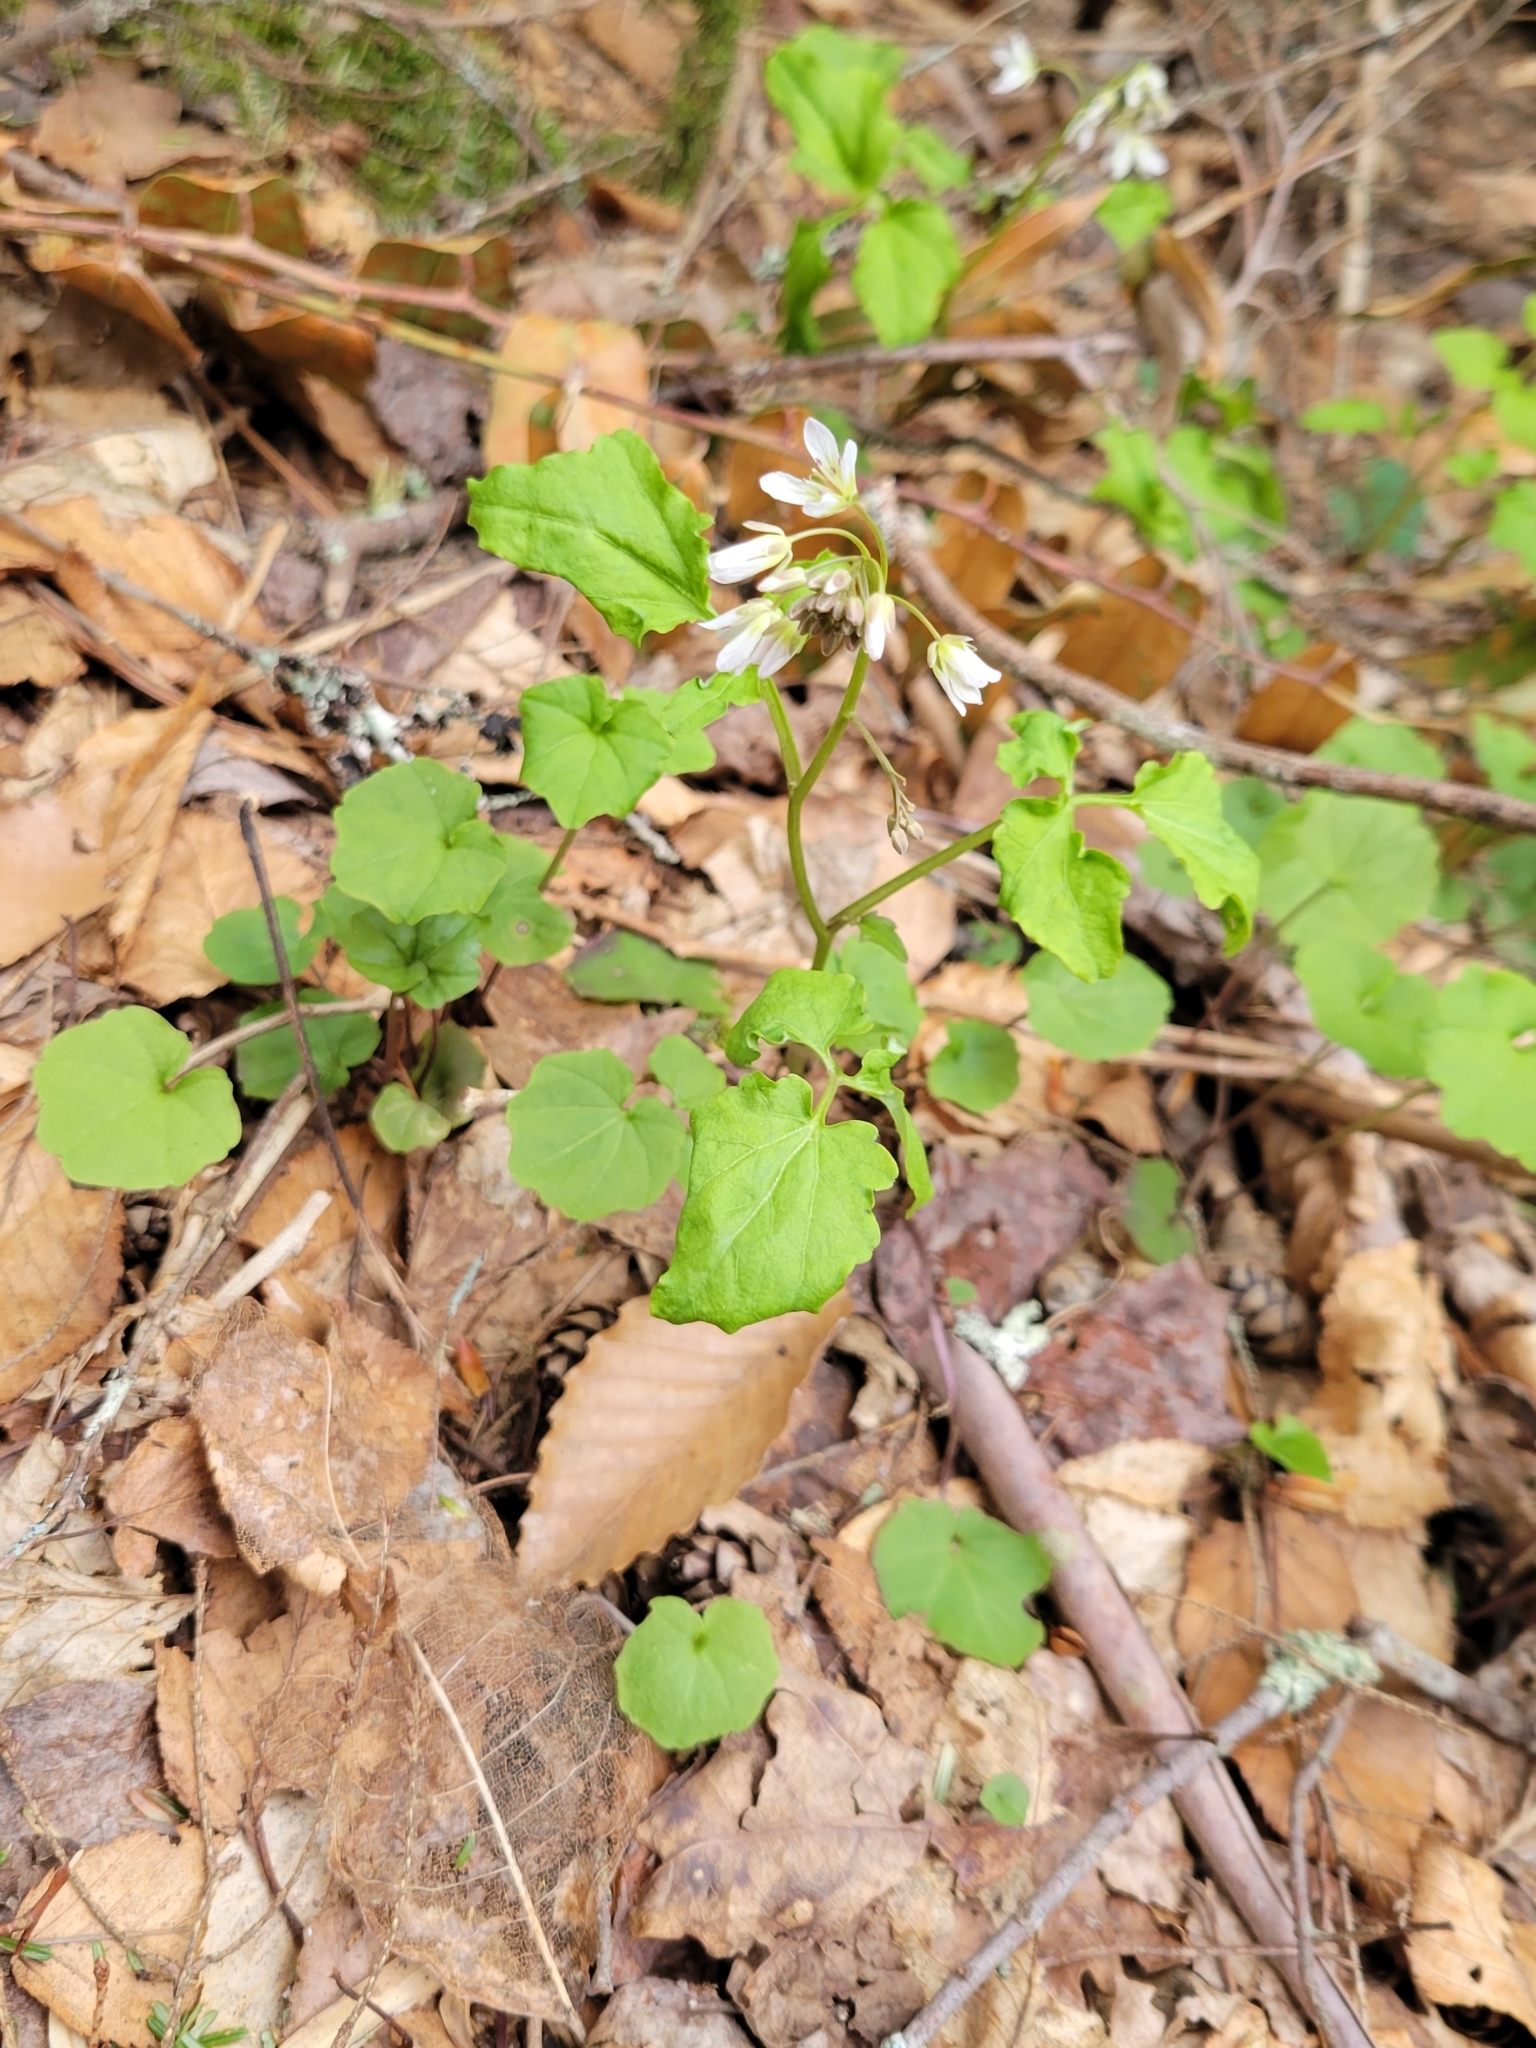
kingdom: Plantae
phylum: Tracheophyta
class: Magnoliopsida
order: Ranunculales
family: Ranunculaceae
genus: Thalictrum
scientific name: Thalictrum thalictroides
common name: Rue-anemone
